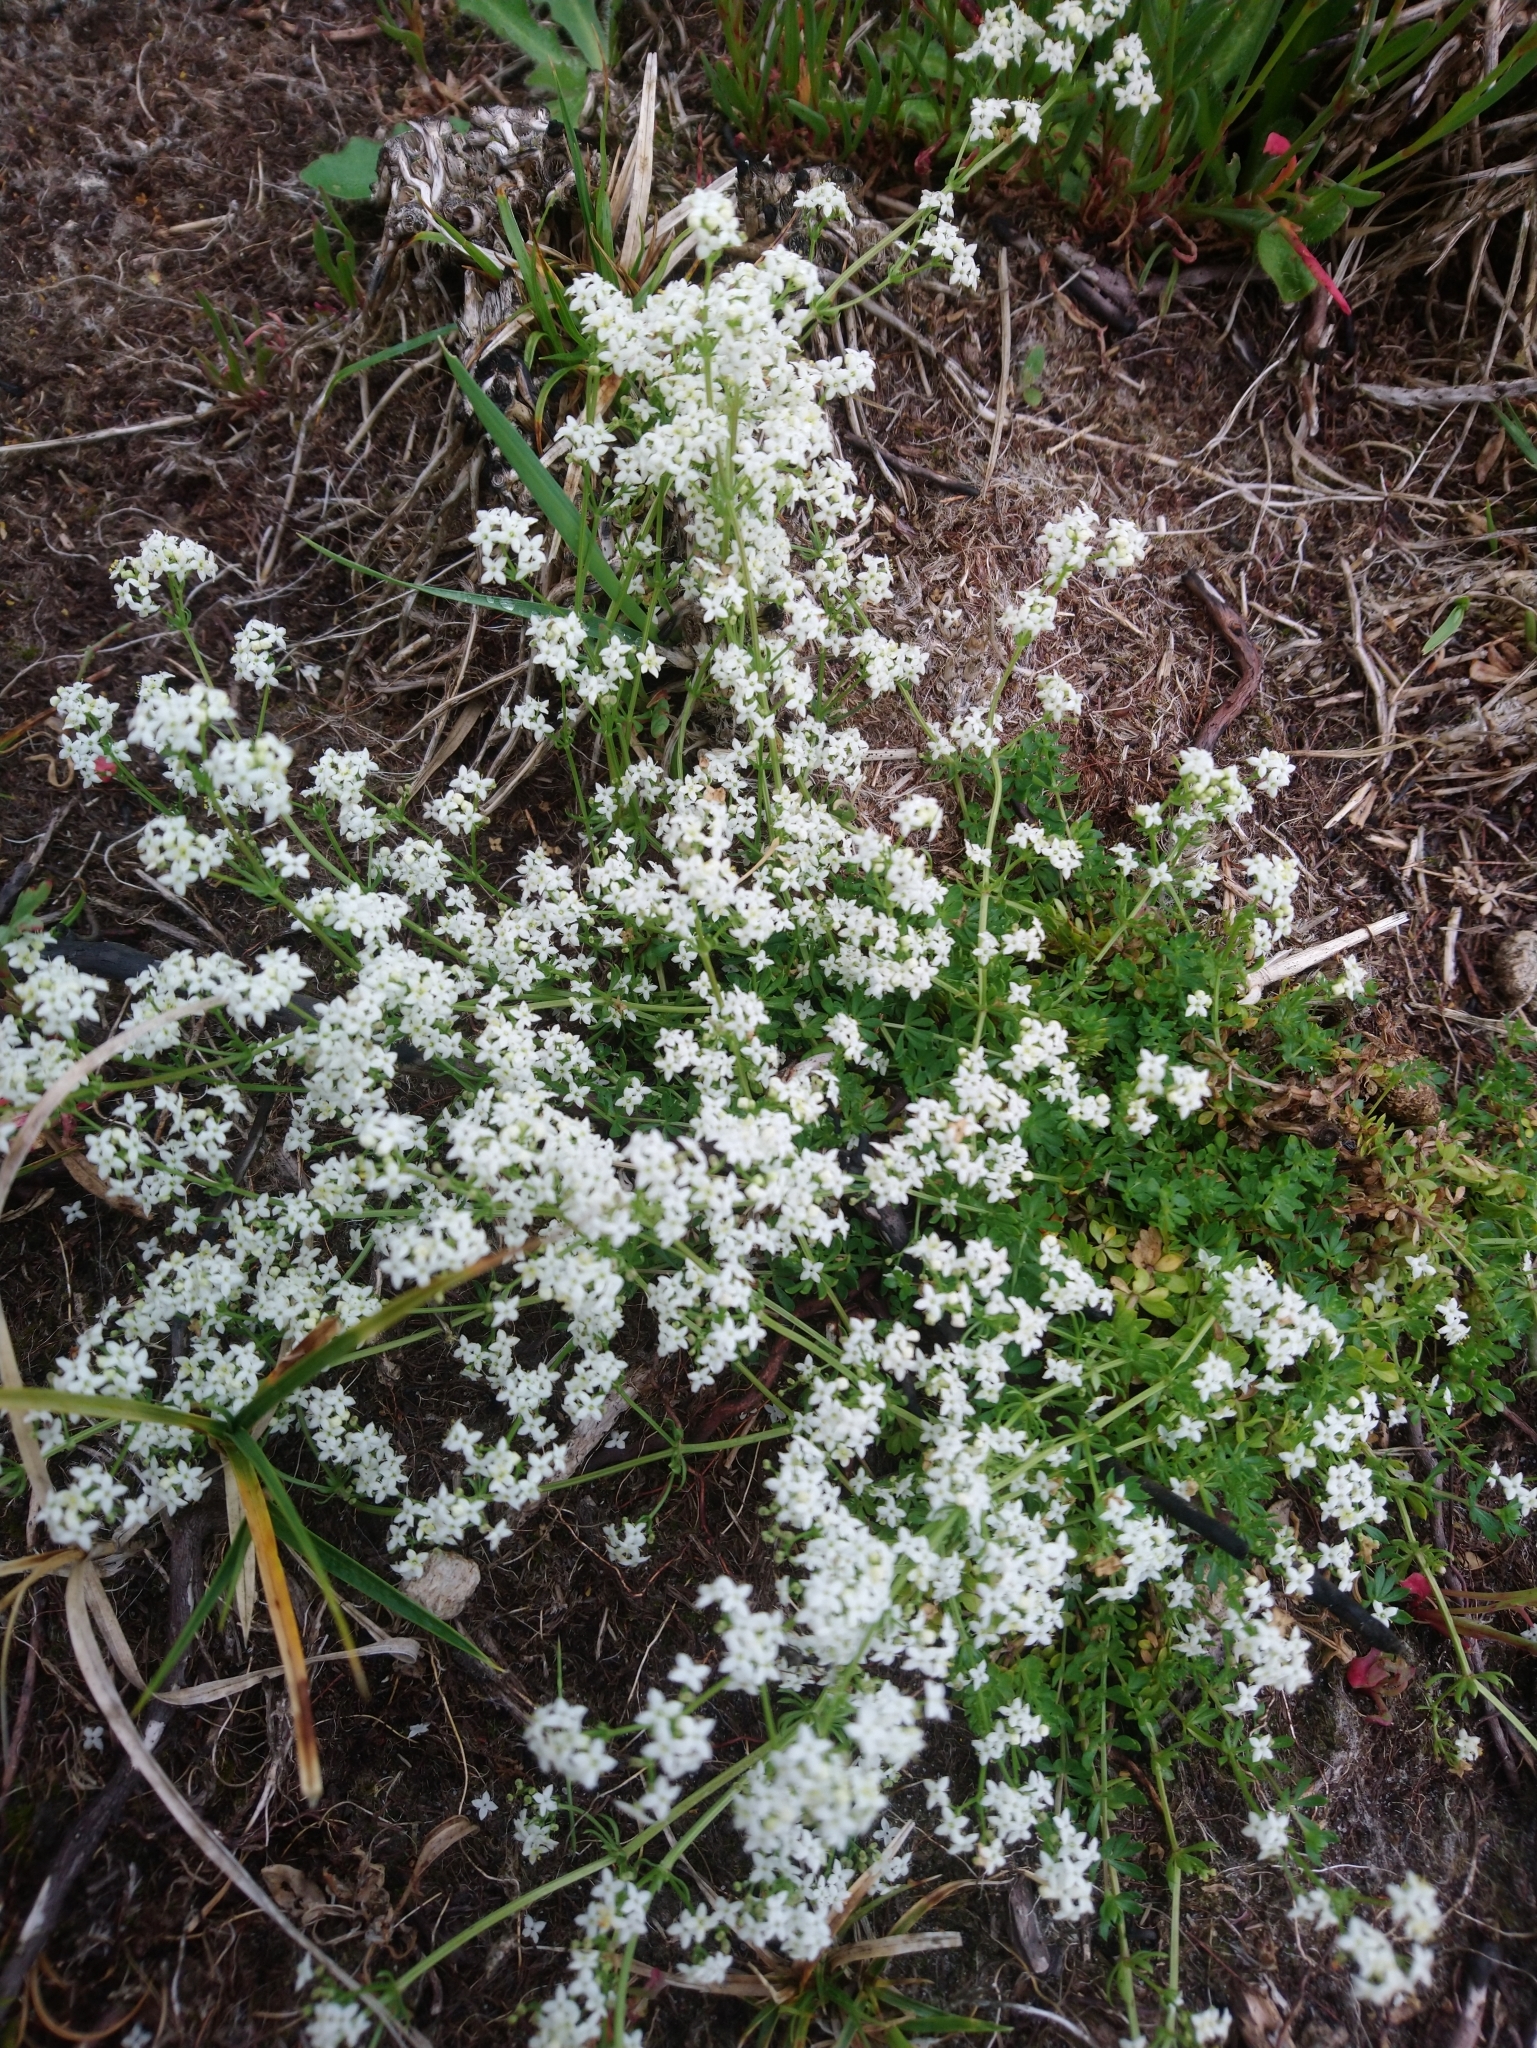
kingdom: Plantae
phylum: Tracheophyta
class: Magnoliopsida
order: Gentianales
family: Rubiaceae
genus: Galium
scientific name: Galium saxatile
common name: Heath bedstraw
